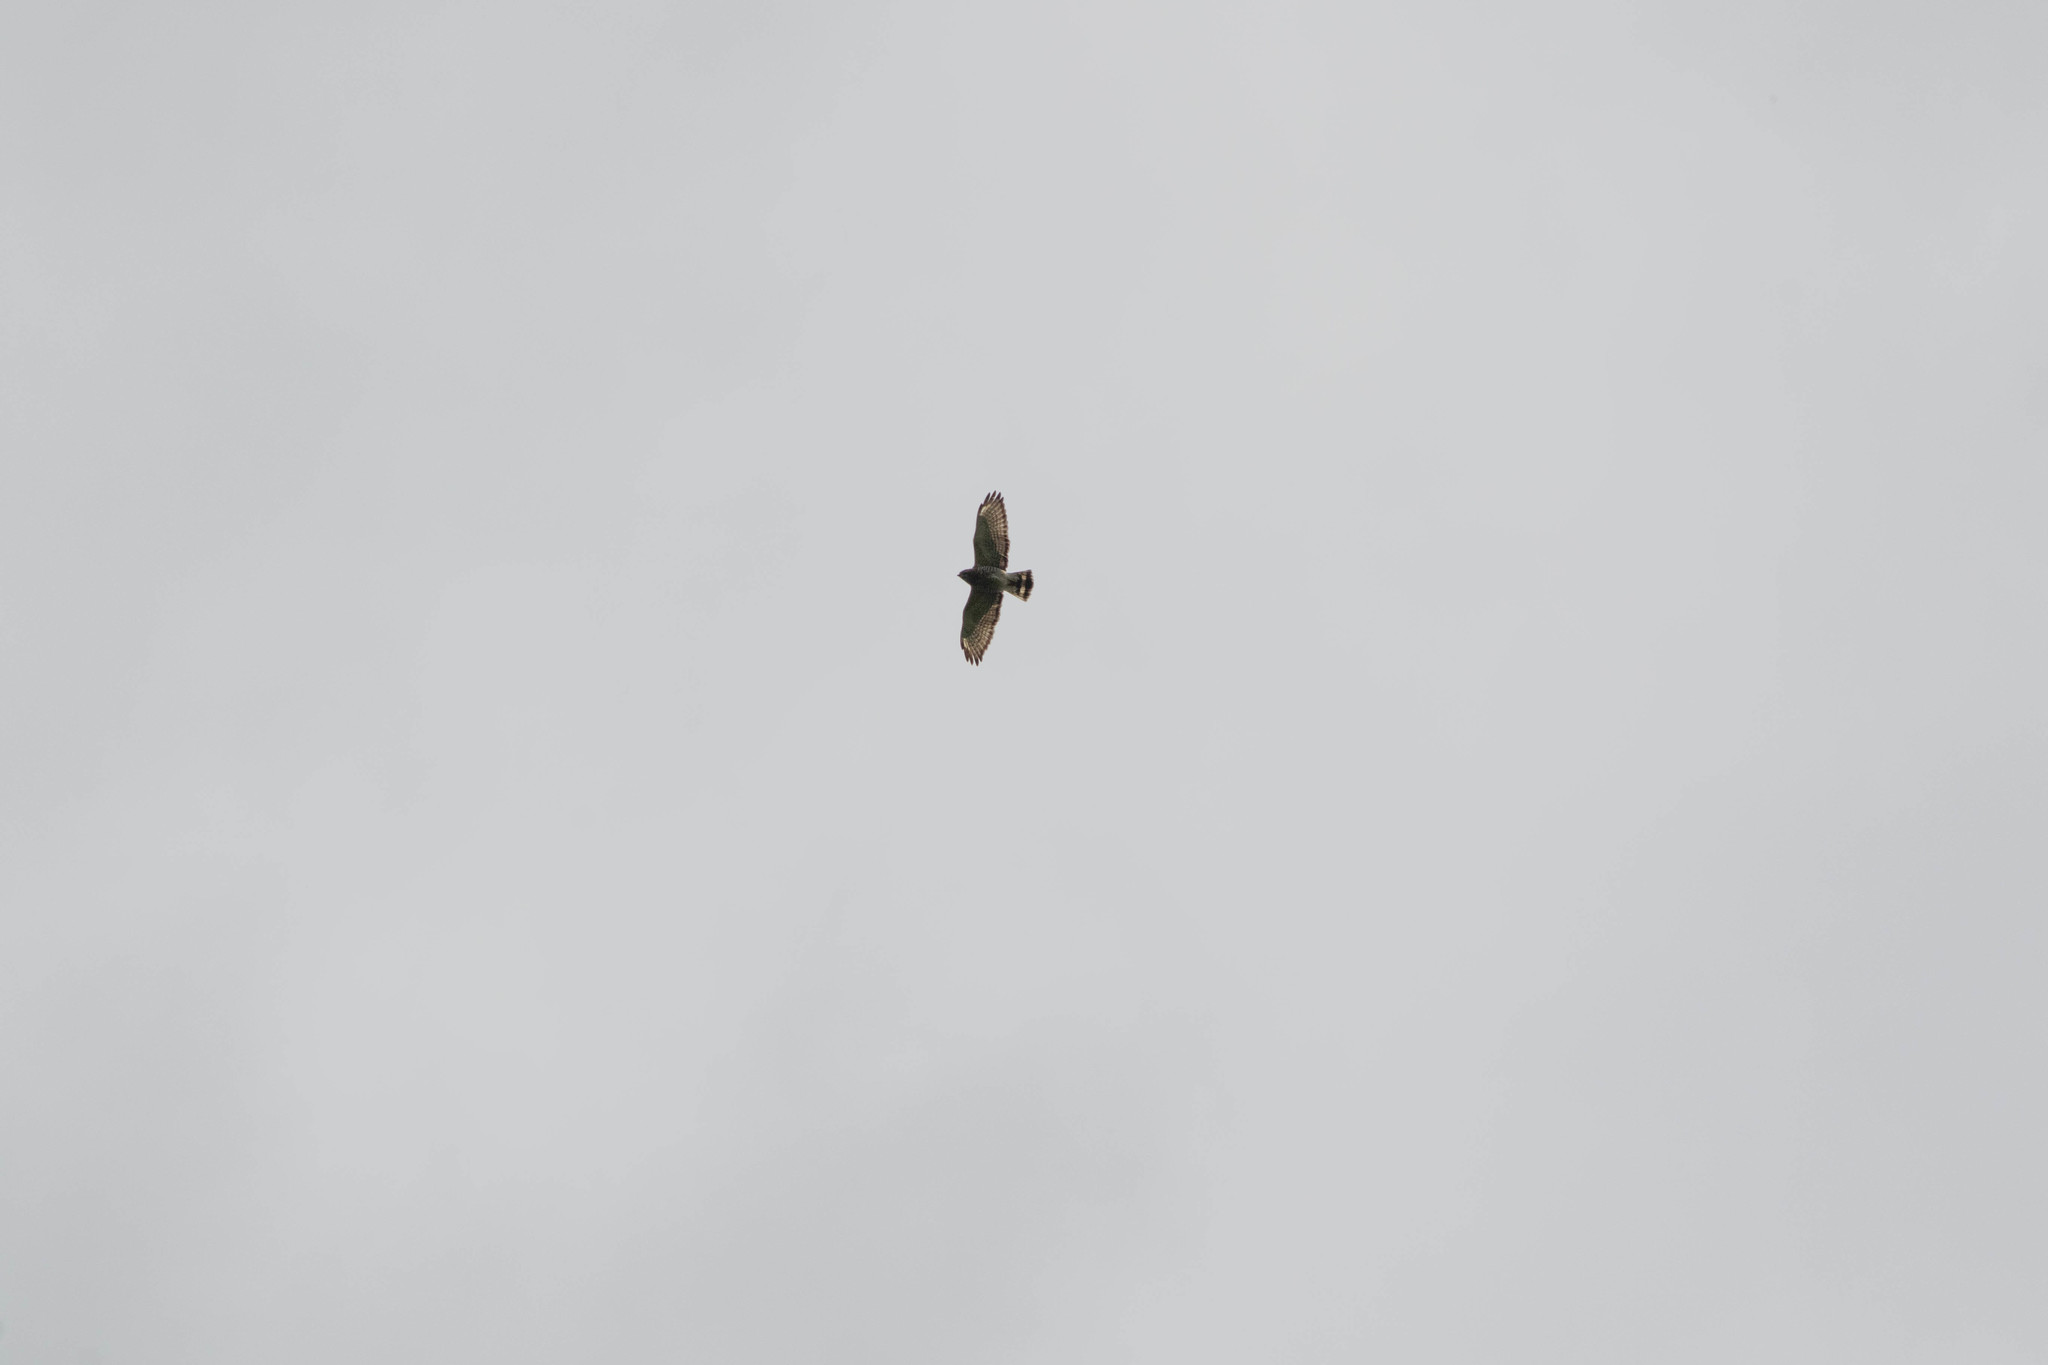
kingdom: Animalia
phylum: Chordata
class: Aves
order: Accipitriformes
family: Accipitridae
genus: Buteo
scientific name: Buteo platypterus
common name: Broad-winged hawk
